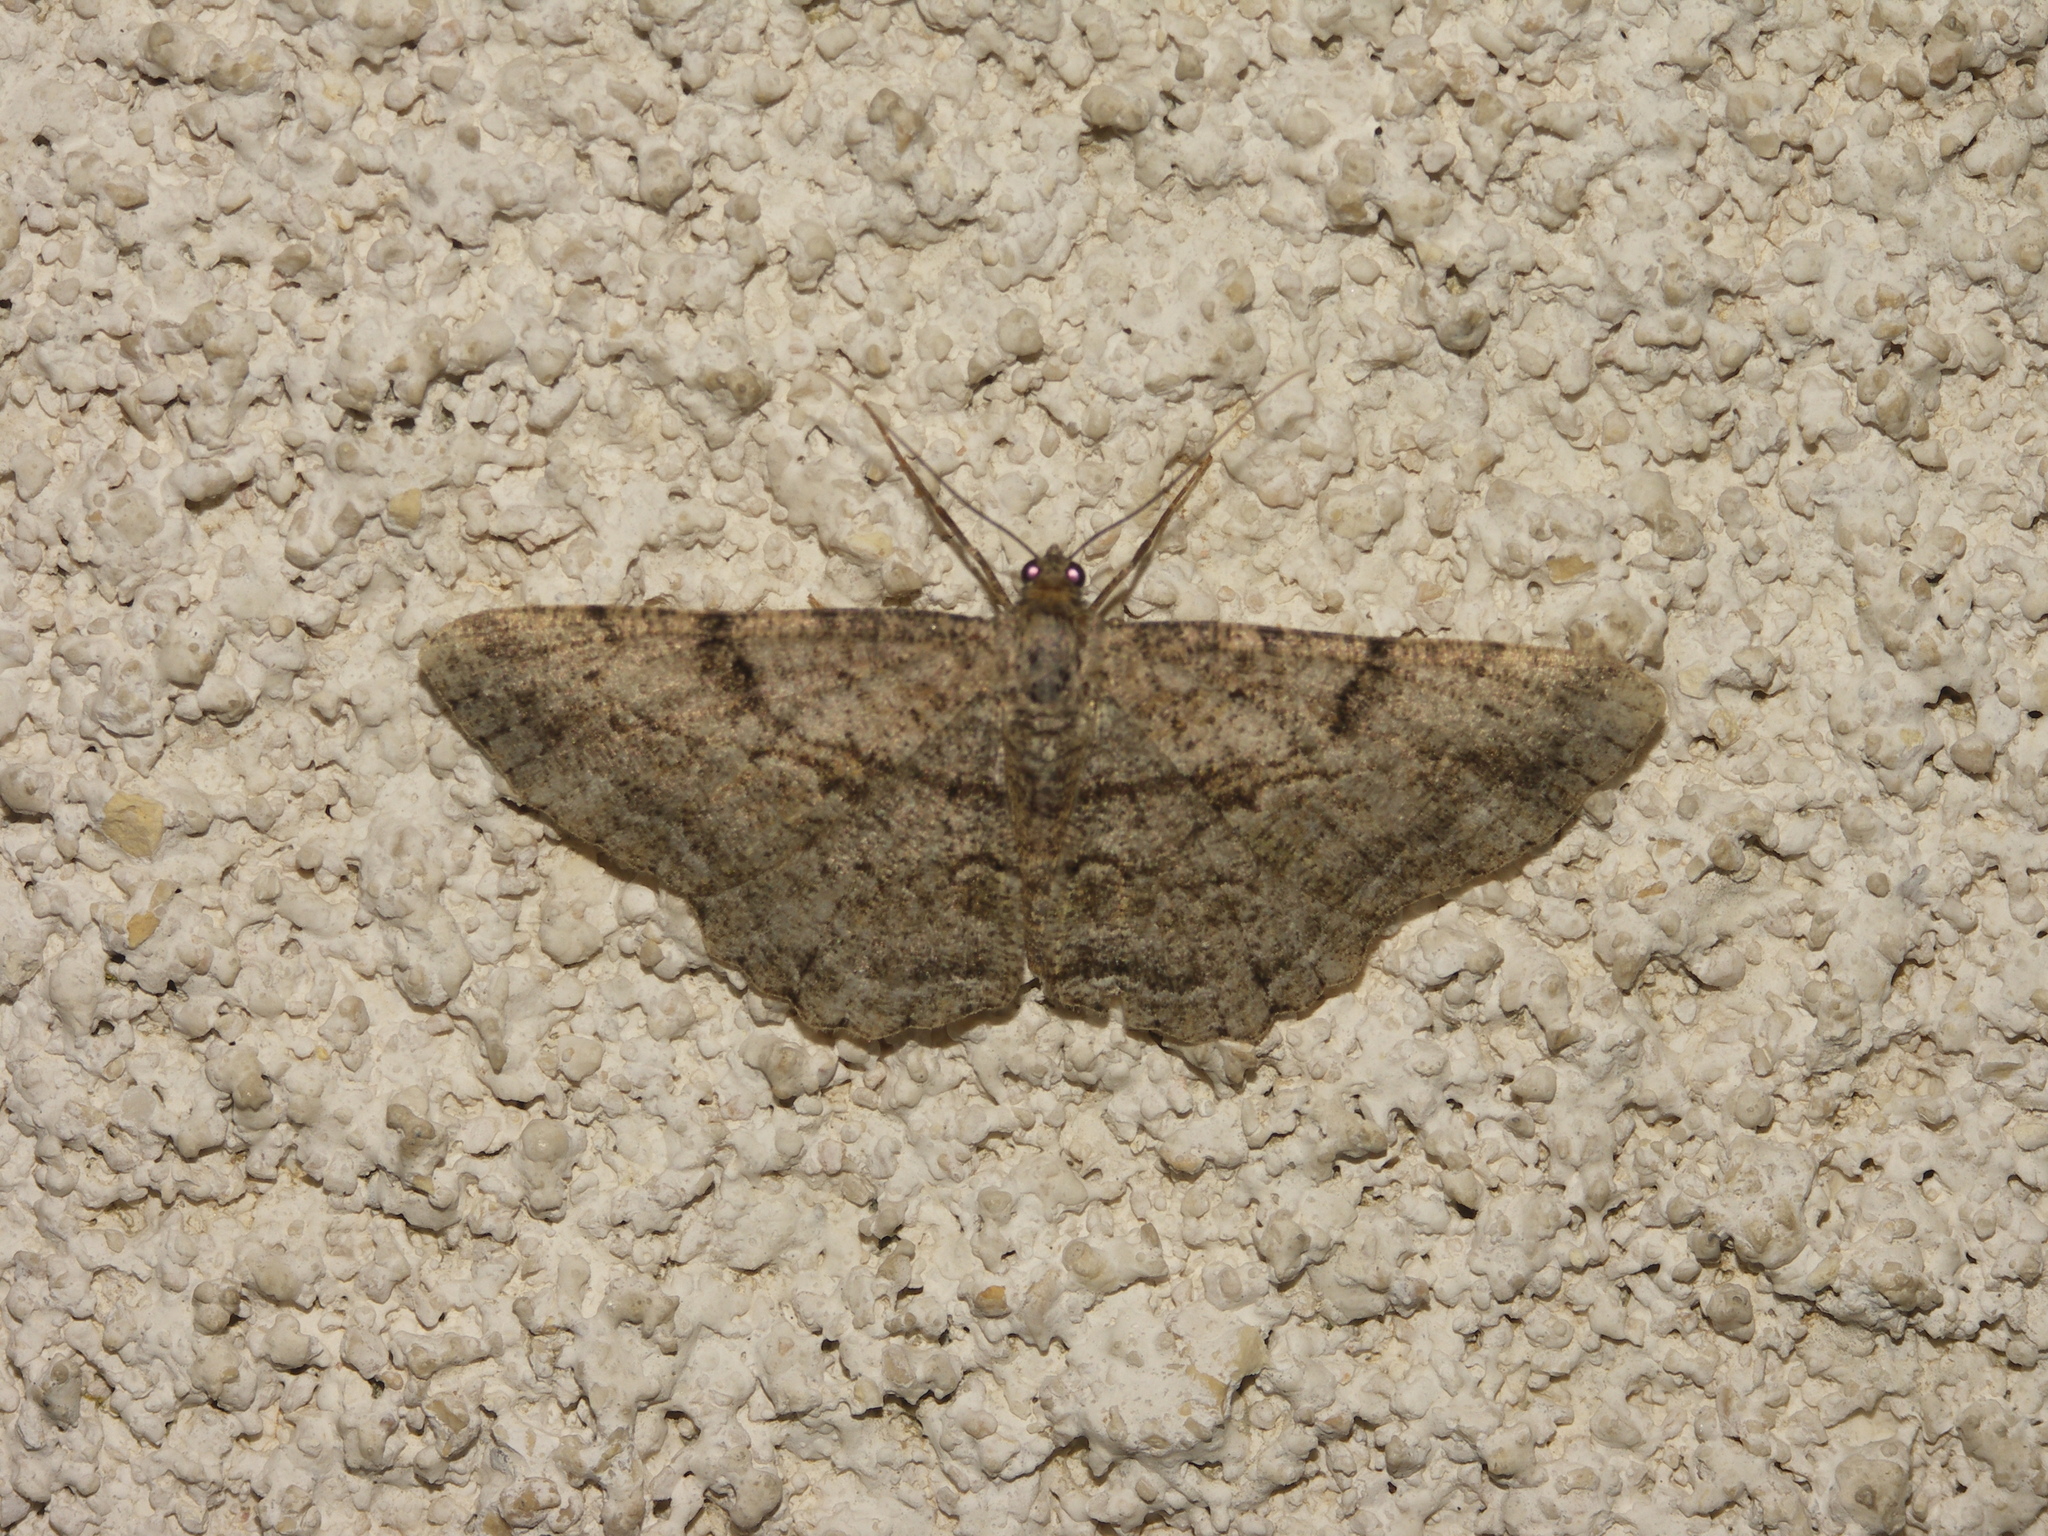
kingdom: Animalia
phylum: Arthropoda
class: Insecta
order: Lepidoptera
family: Geometridae
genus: Peribatodes
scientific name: Peribatodes rhomboidaria
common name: Willow beauty
